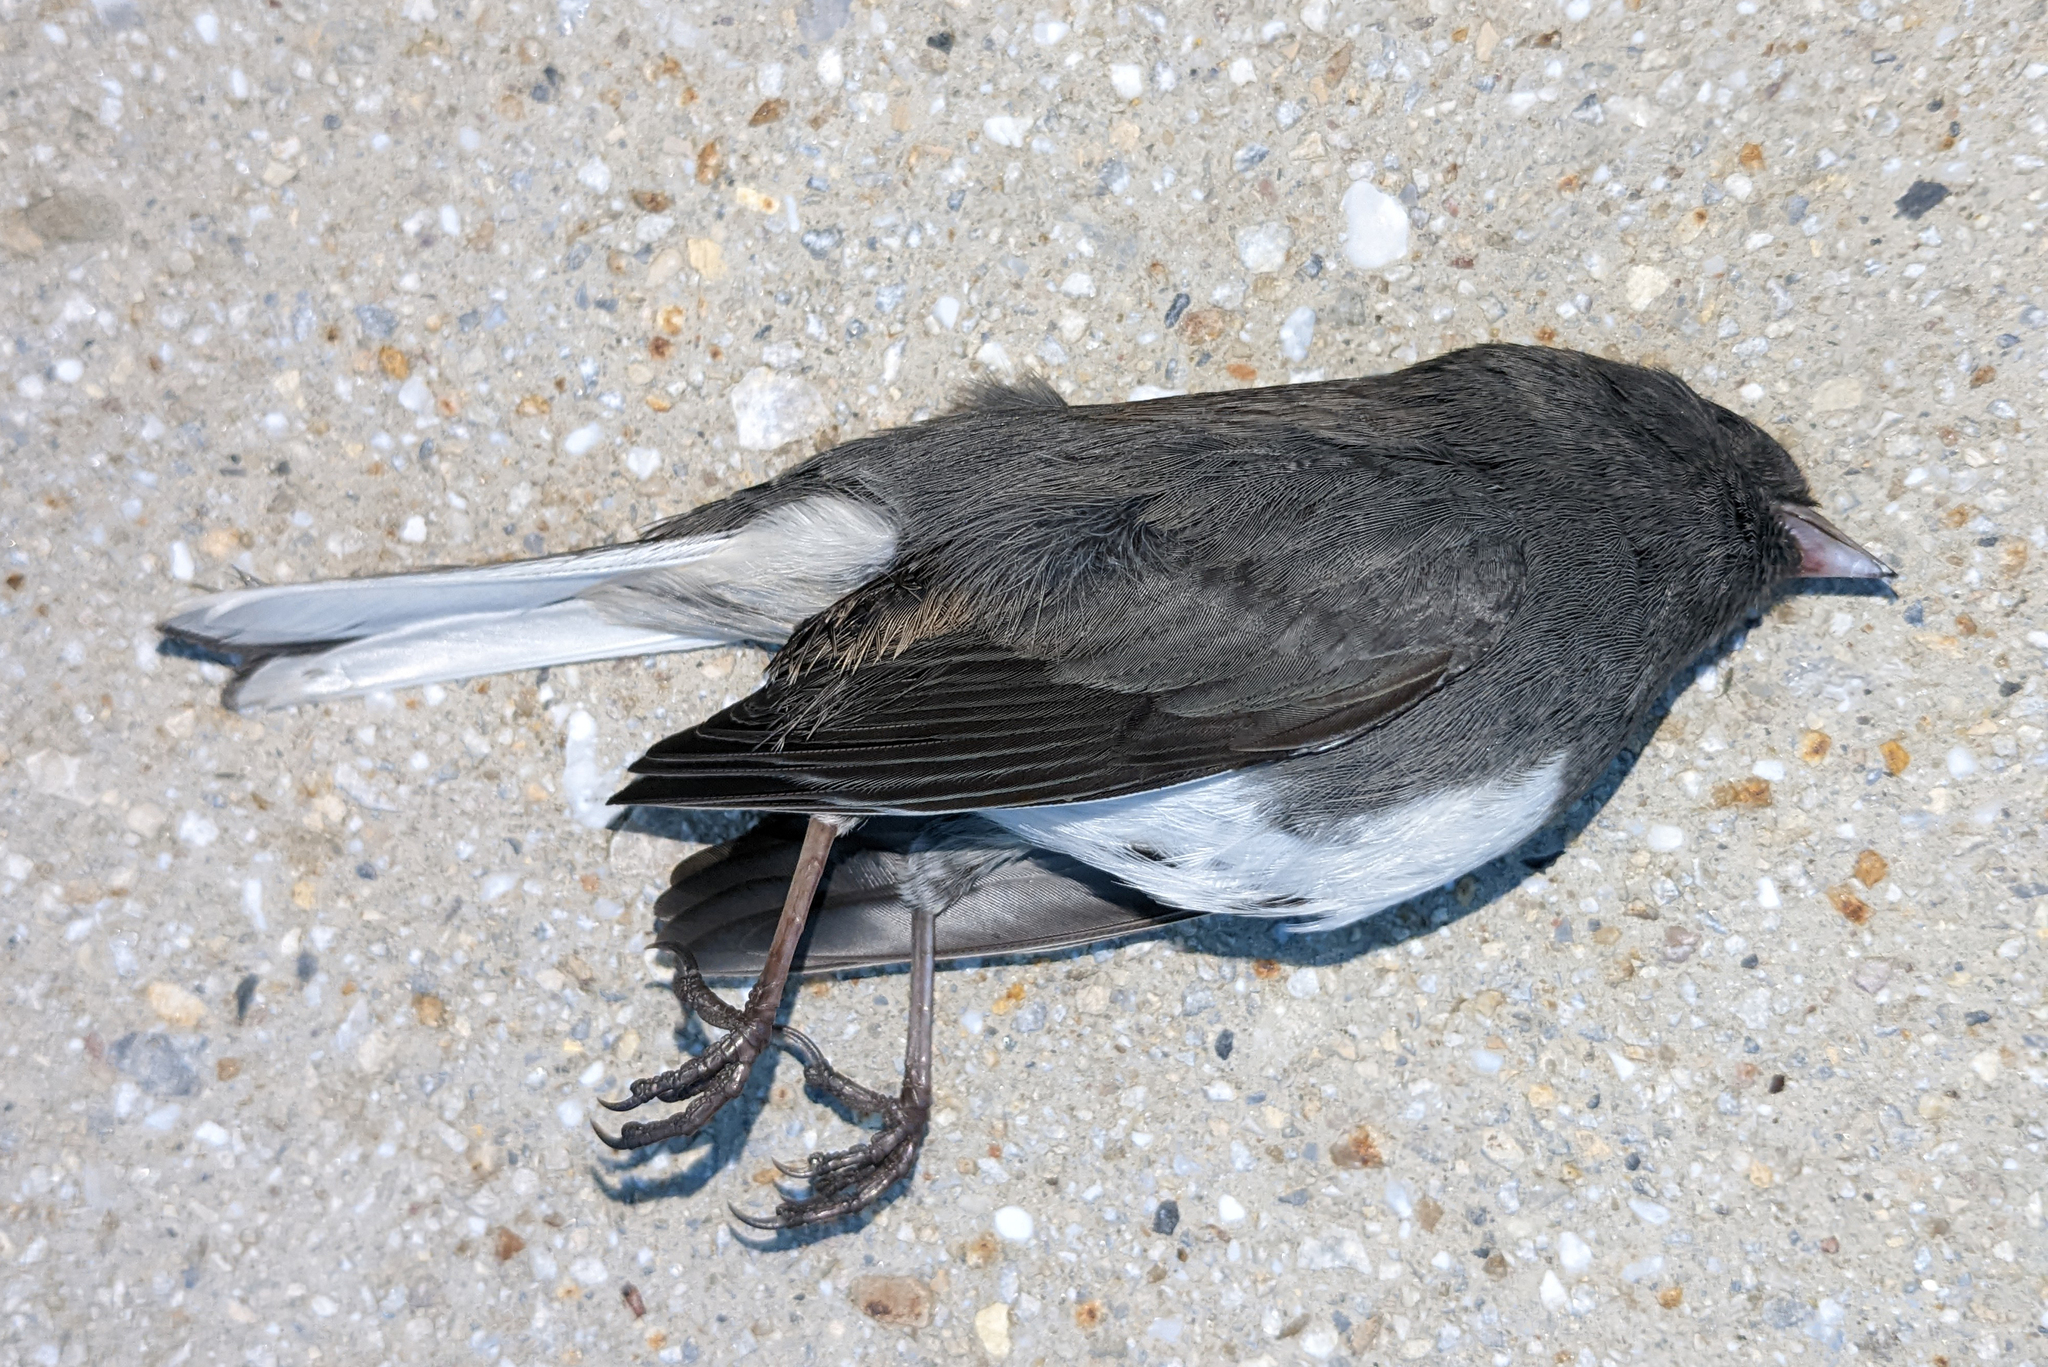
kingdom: Animalia
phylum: Chordata
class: Aves
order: Passeriformes
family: Passerellidae
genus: Junco
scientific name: Junco hyemalis
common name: Dark-eyed junco
